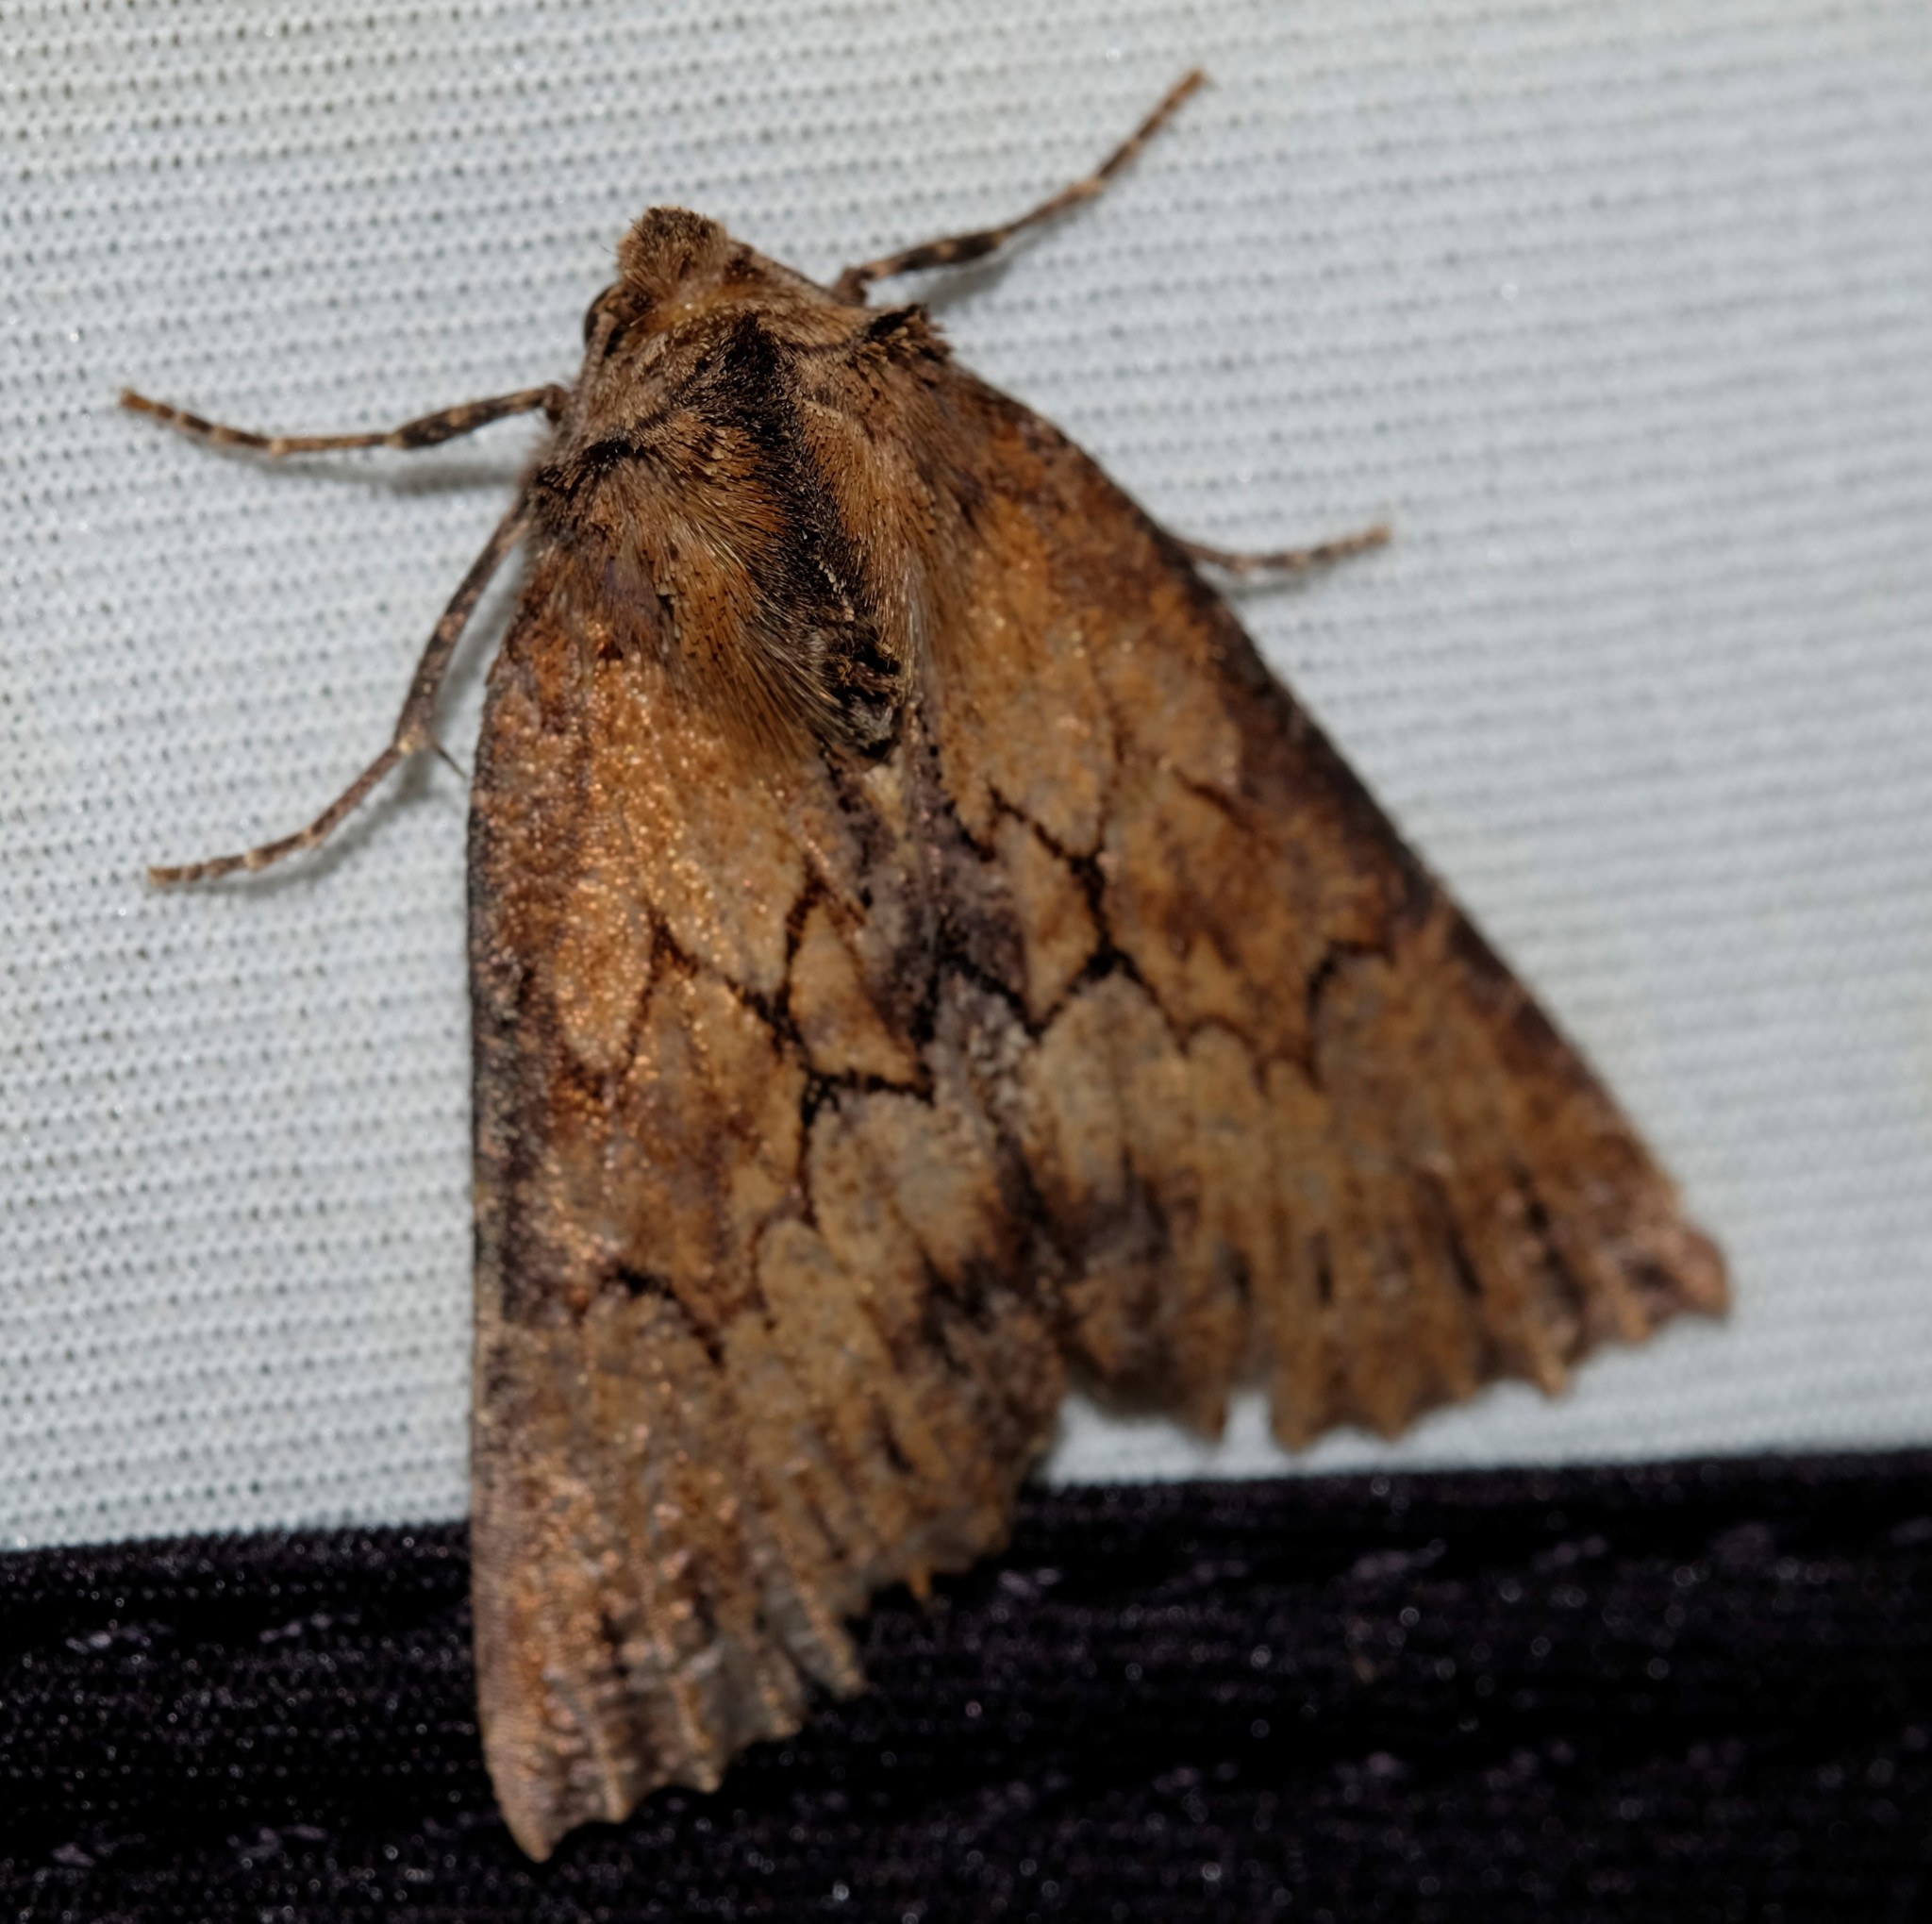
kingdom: Animalia
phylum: Arthropoda
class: Insecta
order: Lepidoptera
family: Geometridae
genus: Nisista
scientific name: Nisista serrata
